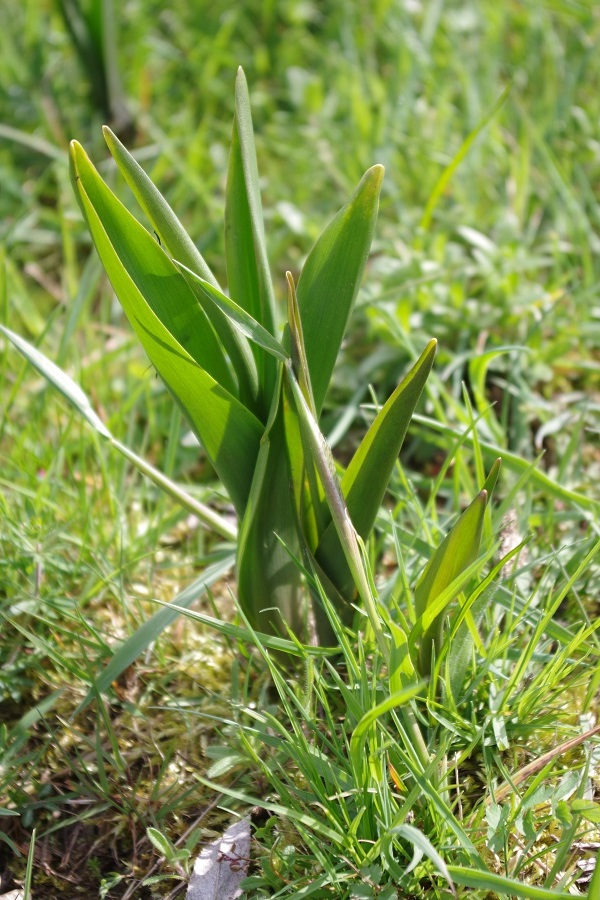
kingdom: Plantae
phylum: Tracheophyta
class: Liliopsida
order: Liliales
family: Colchicaceae
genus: Colchicum
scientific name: Colchicum autumnale
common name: Autumn crocus
